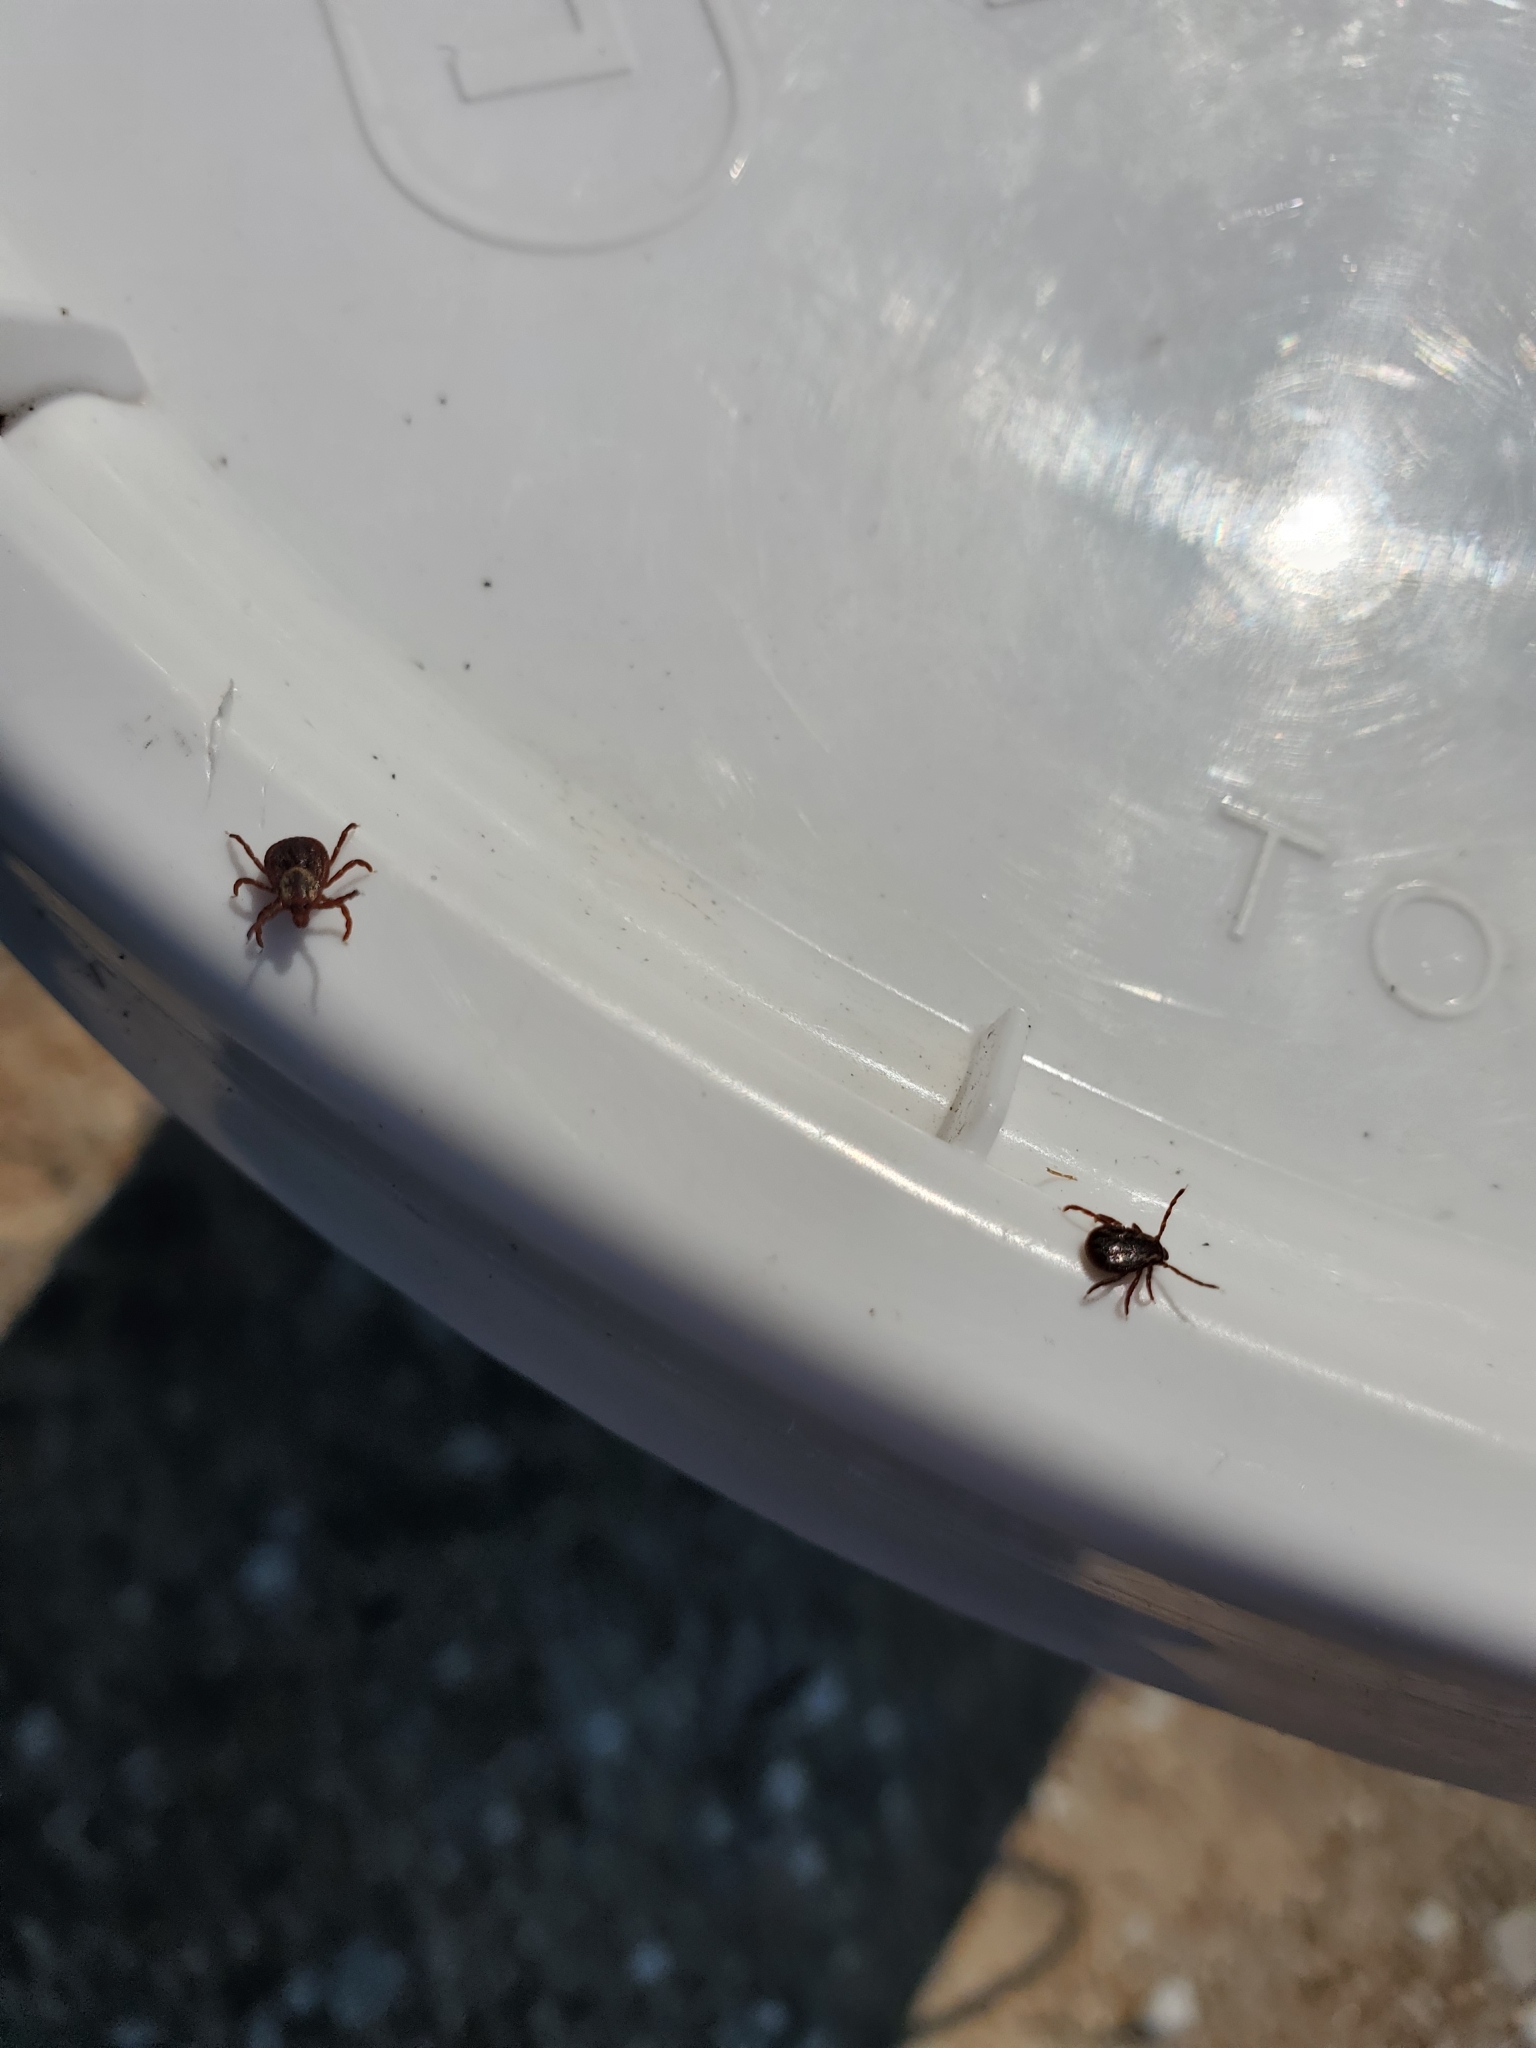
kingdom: Animalia
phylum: Arthropoda
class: Arachnida
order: Ixodida
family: Ixodidae
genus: Dermacentor
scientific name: Dermacentor variabilis
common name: American dog tick
